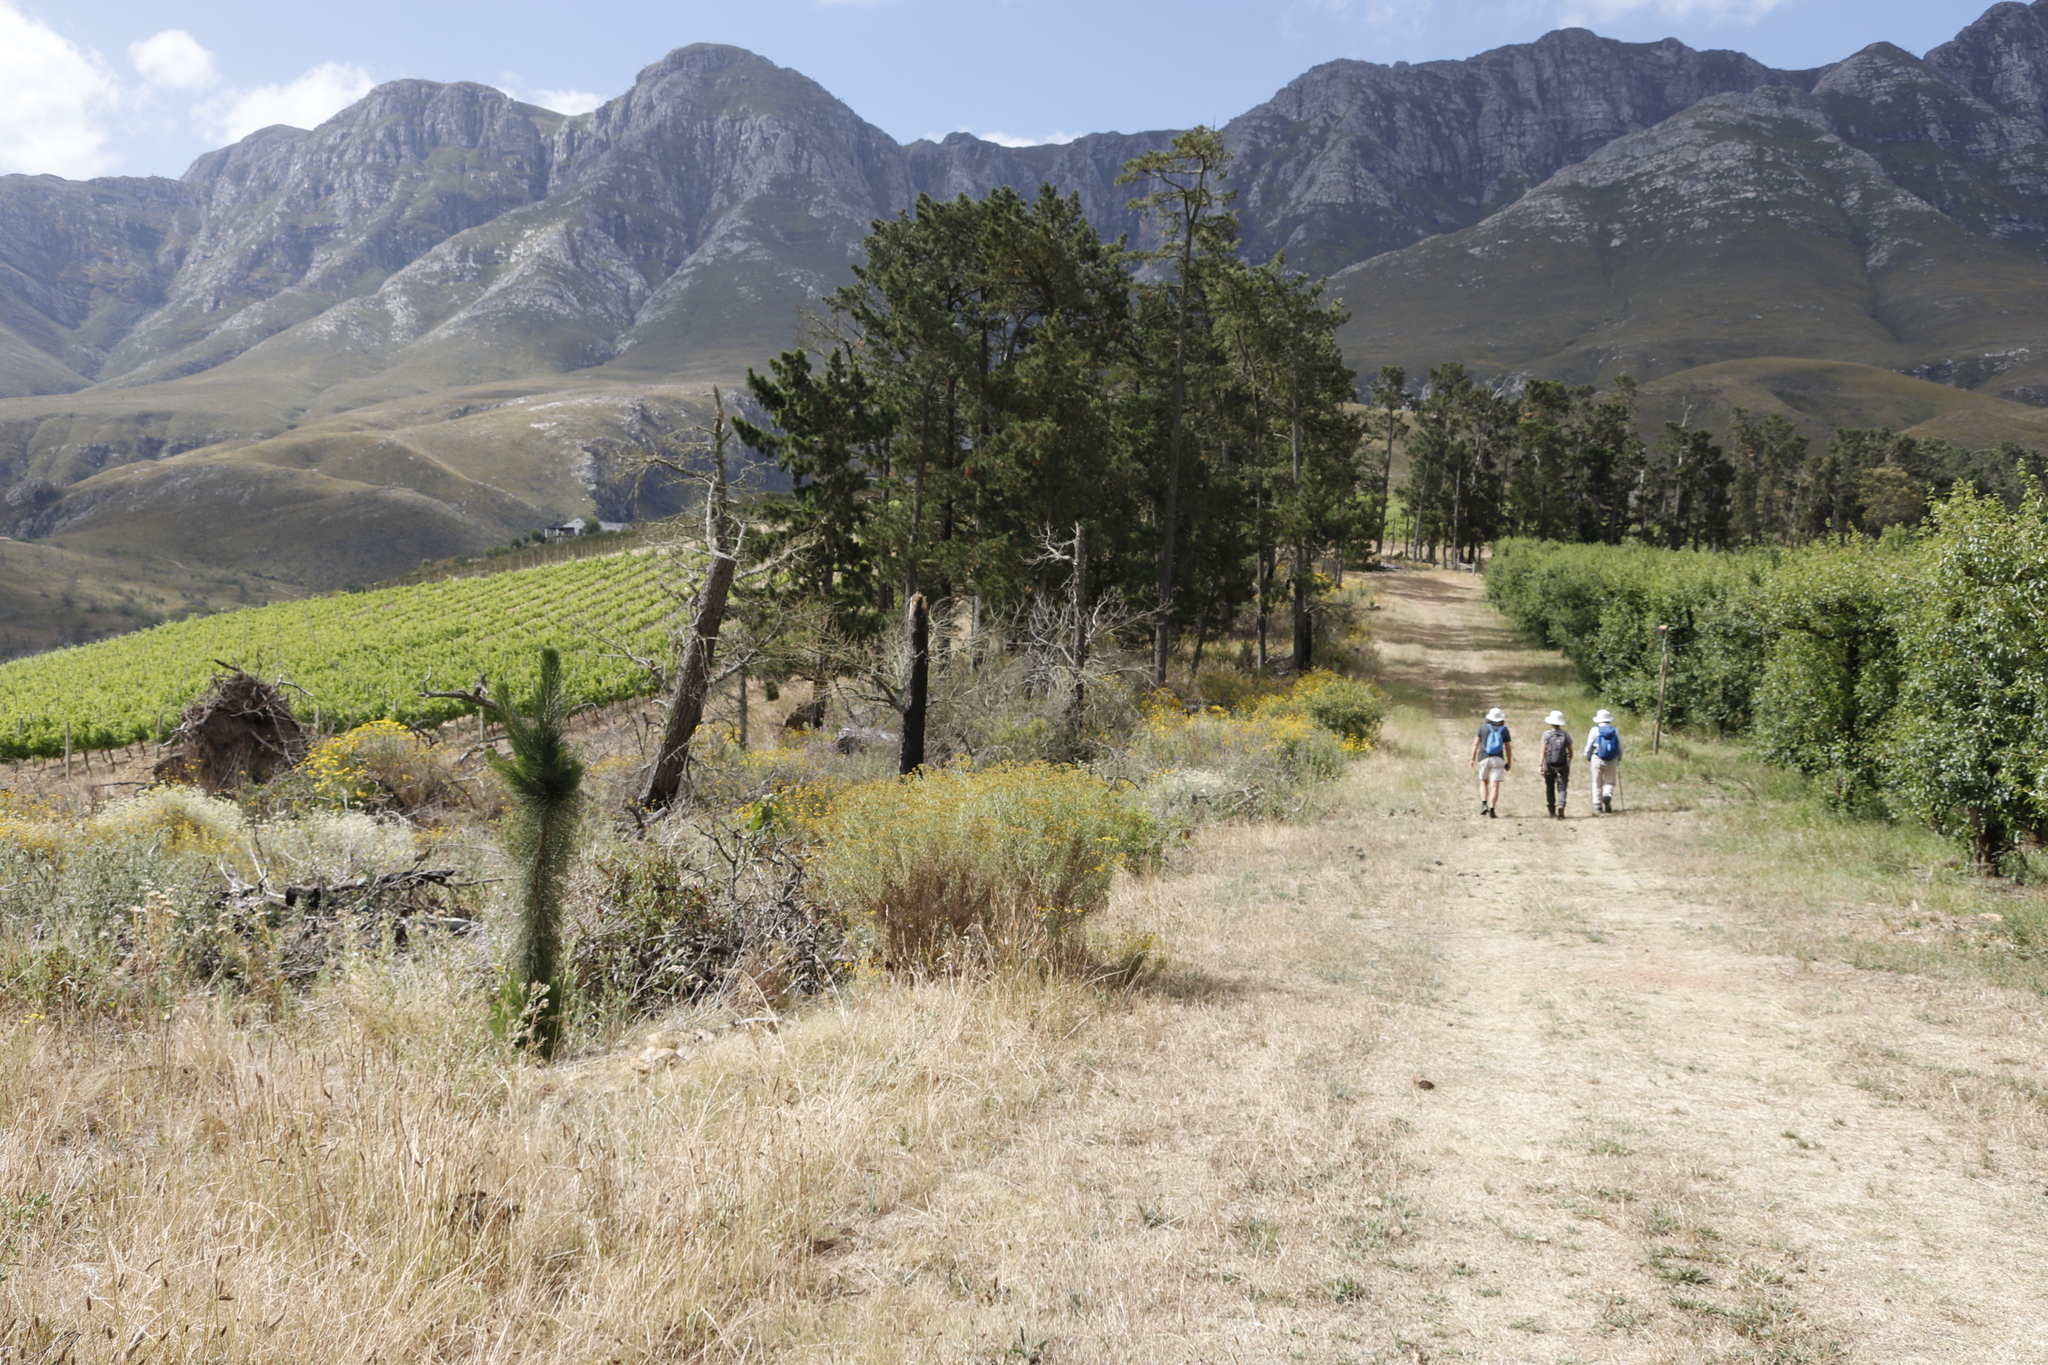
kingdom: Plantae
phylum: Tracheophyta
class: Pinopsida
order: Pinales
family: Pinaceae
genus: Pinus
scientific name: Pinus radiata
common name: Monterey pine
